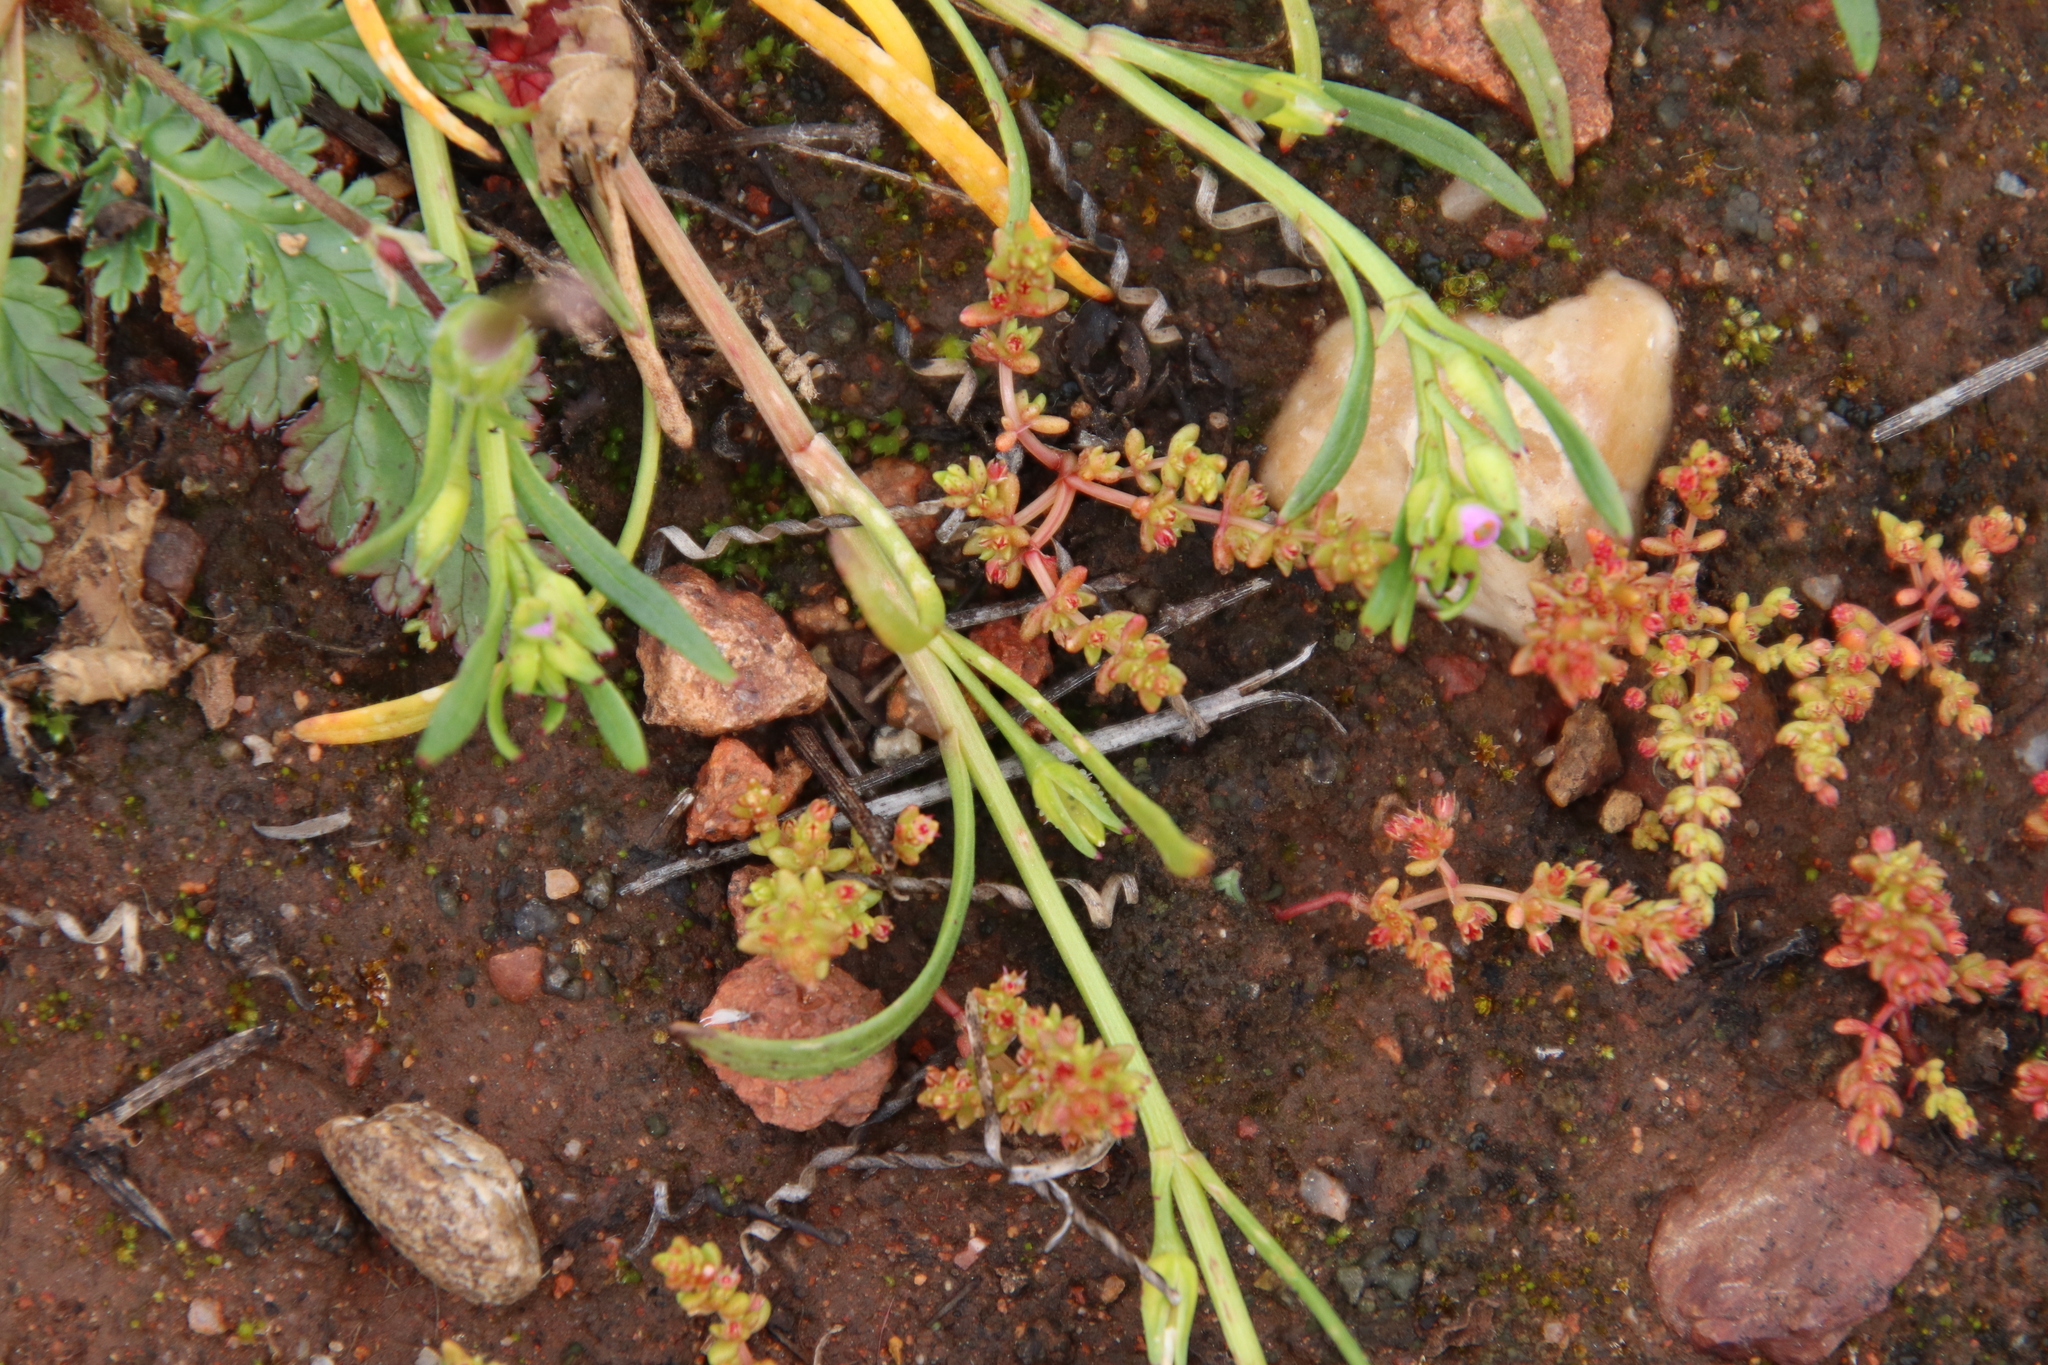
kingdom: Plantae
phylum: Tracheophyta
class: Magnoliopsida
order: Caryophyllales
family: Montiaceae
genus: Calandrinia
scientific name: Calandrinia menziesii
